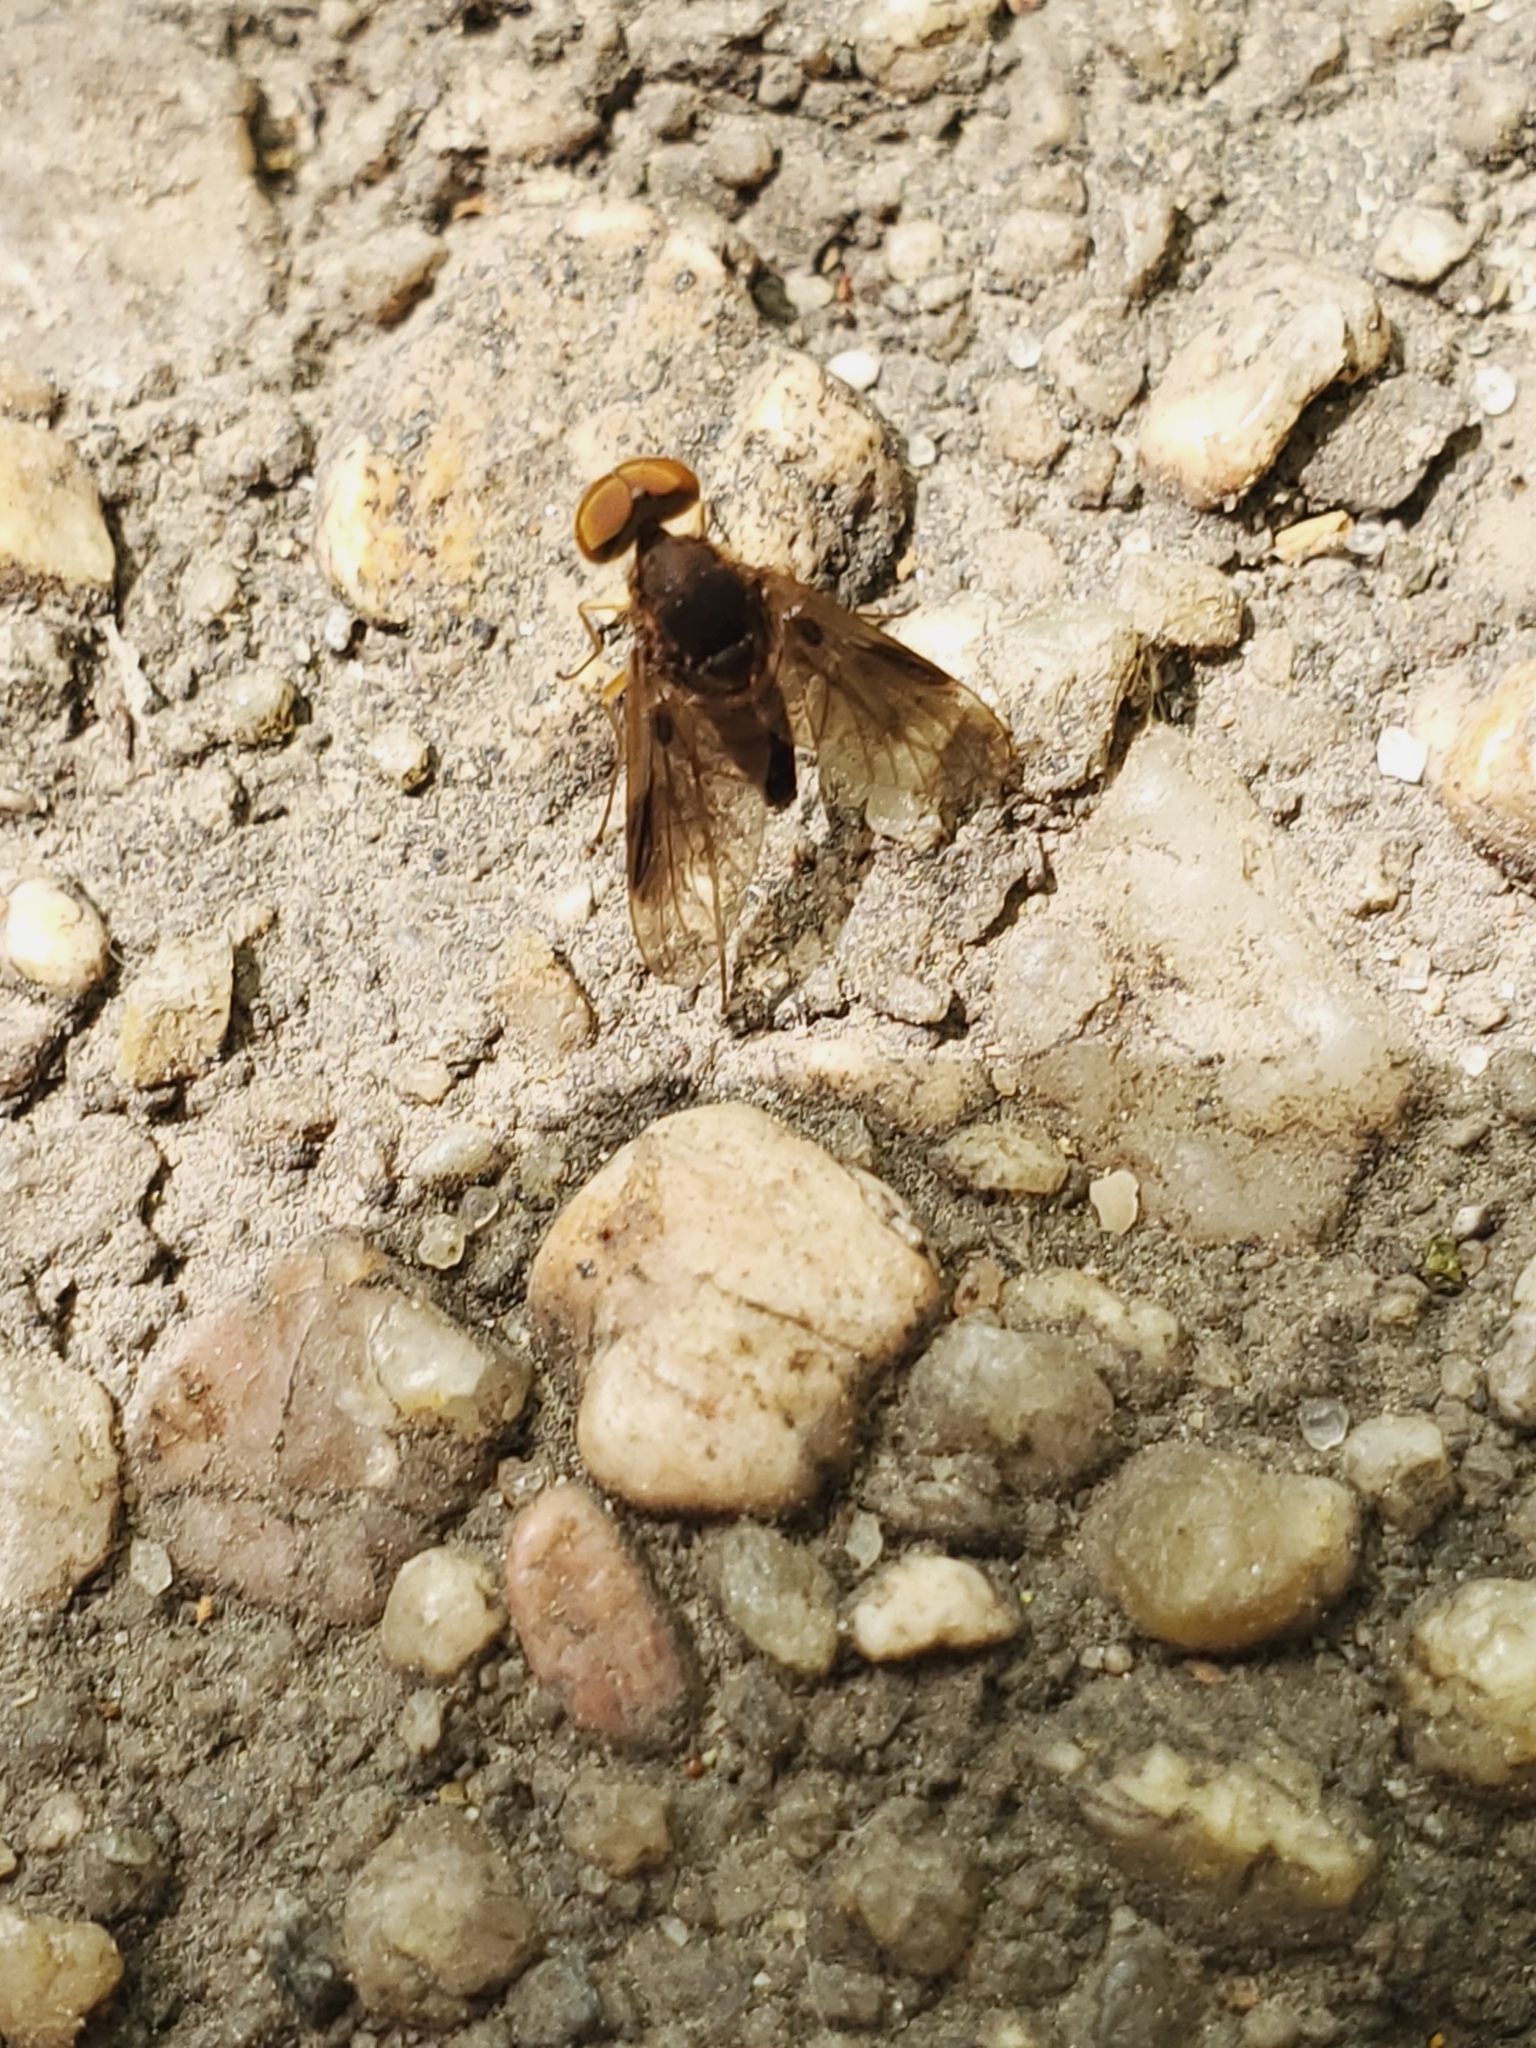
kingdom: Animalia
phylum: Arthropoda
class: Insecta
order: Diptera
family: Rhagionidae
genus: Chrysopilus
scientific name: Chrysopilus quadratus
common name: Quadrate snipe fly
